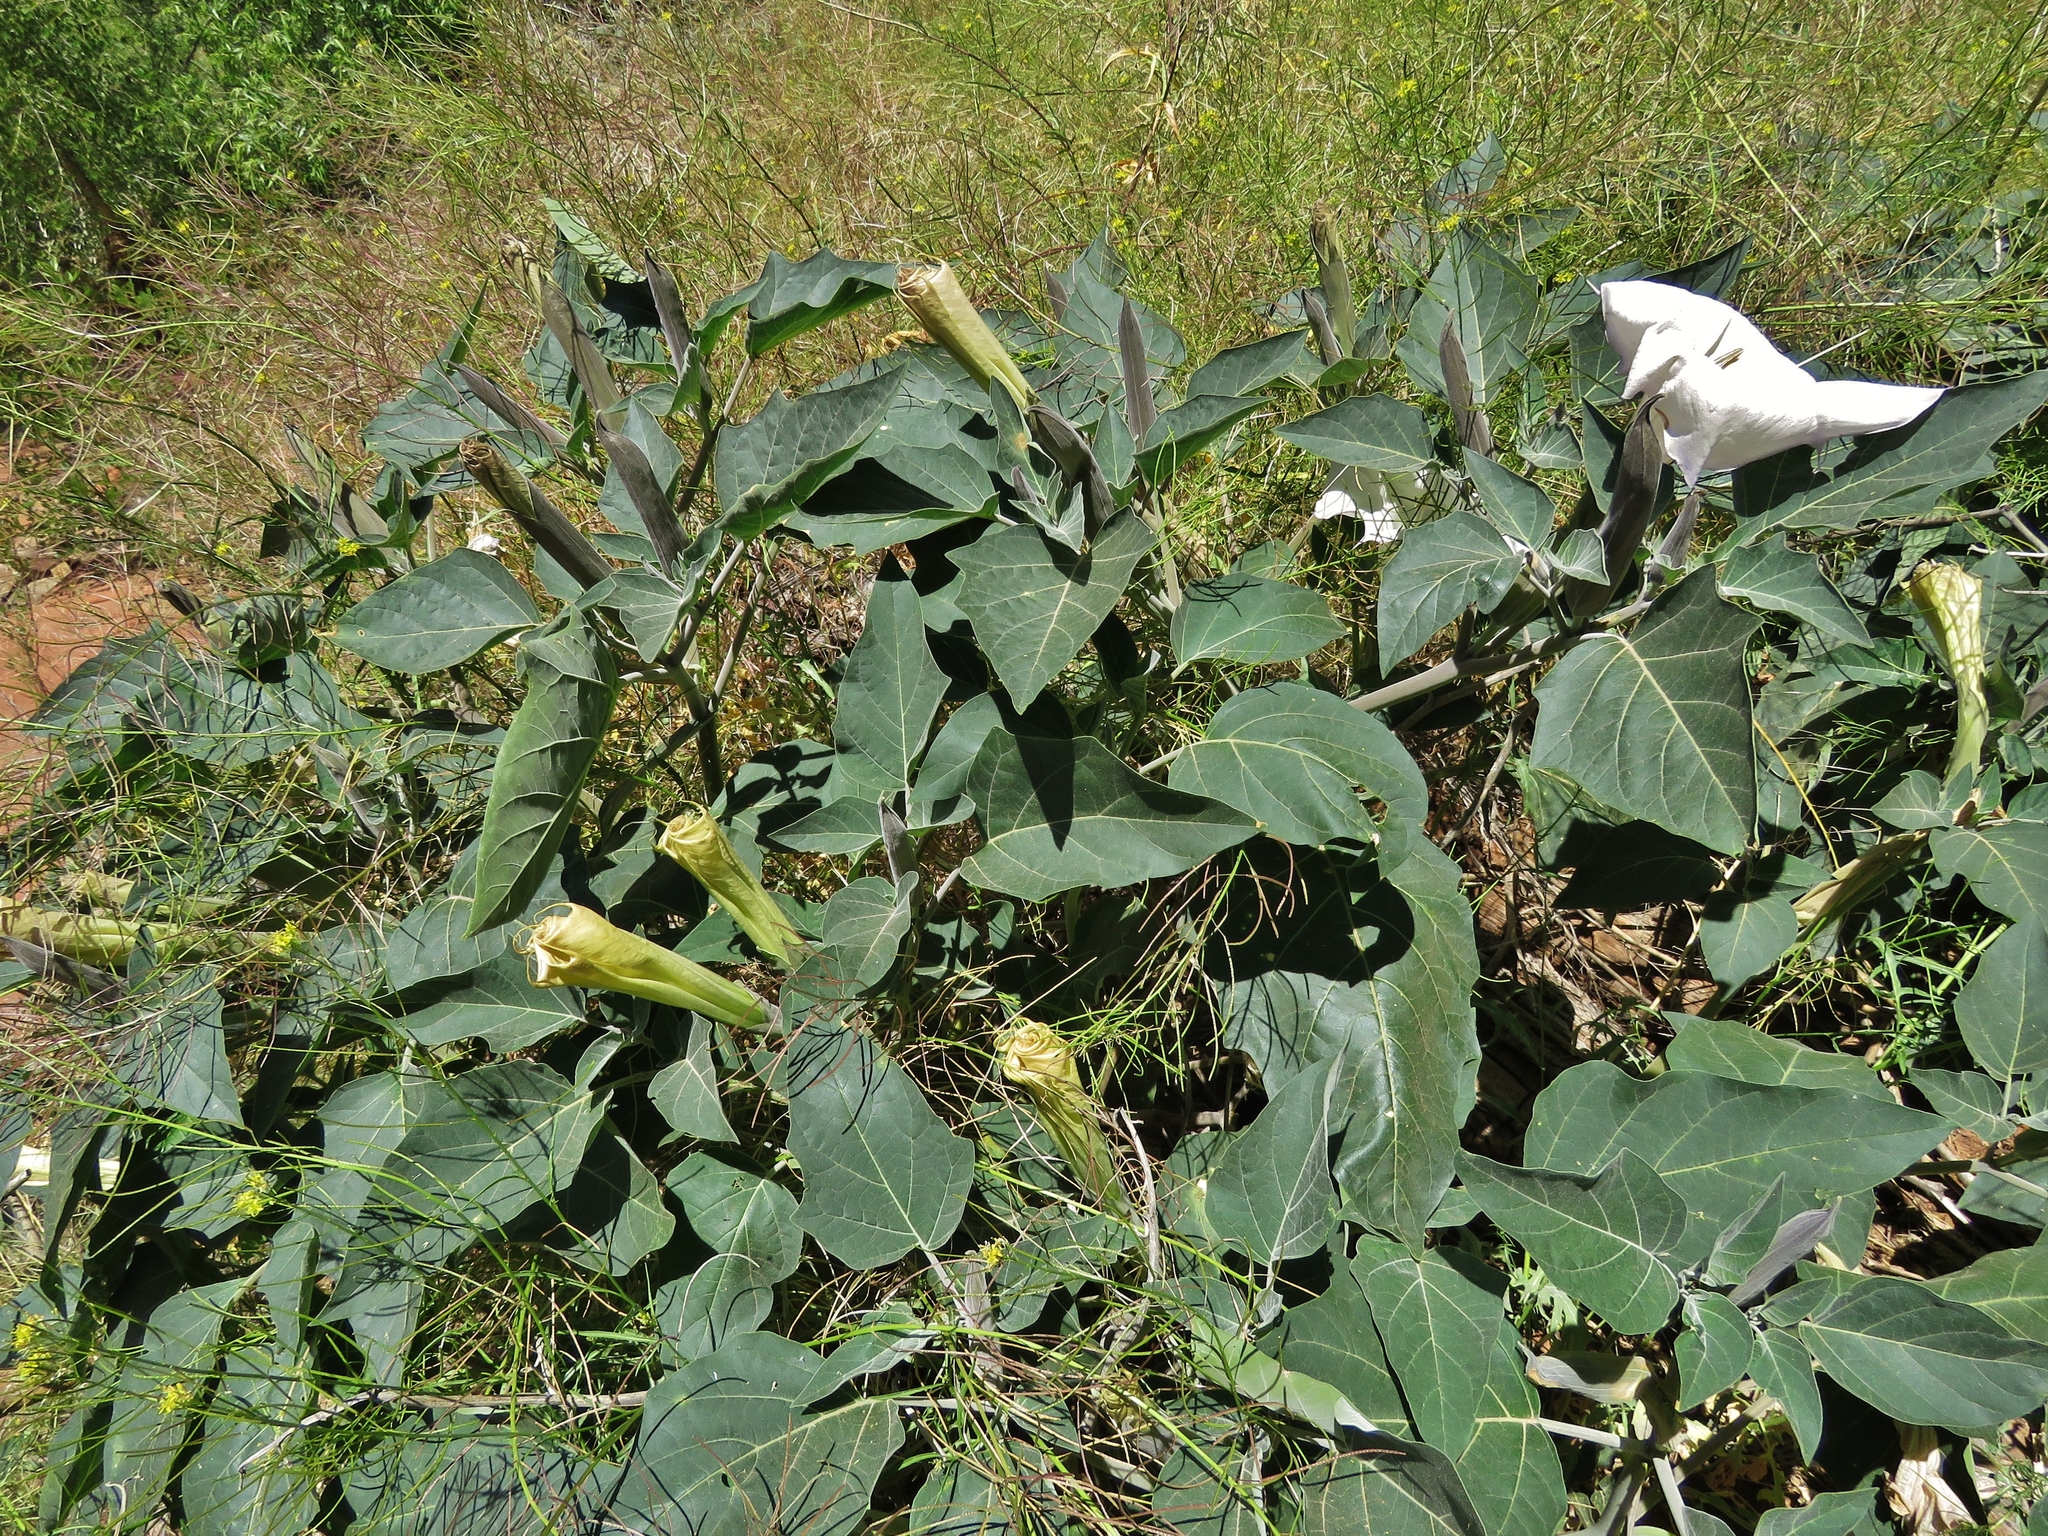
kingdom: Plantae
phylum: Tracheophyta
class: Magnoliopsida
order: Solanales
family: Solanaceae
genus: Datura
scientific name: Datura wrightii
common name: Sacred thorn-apple
